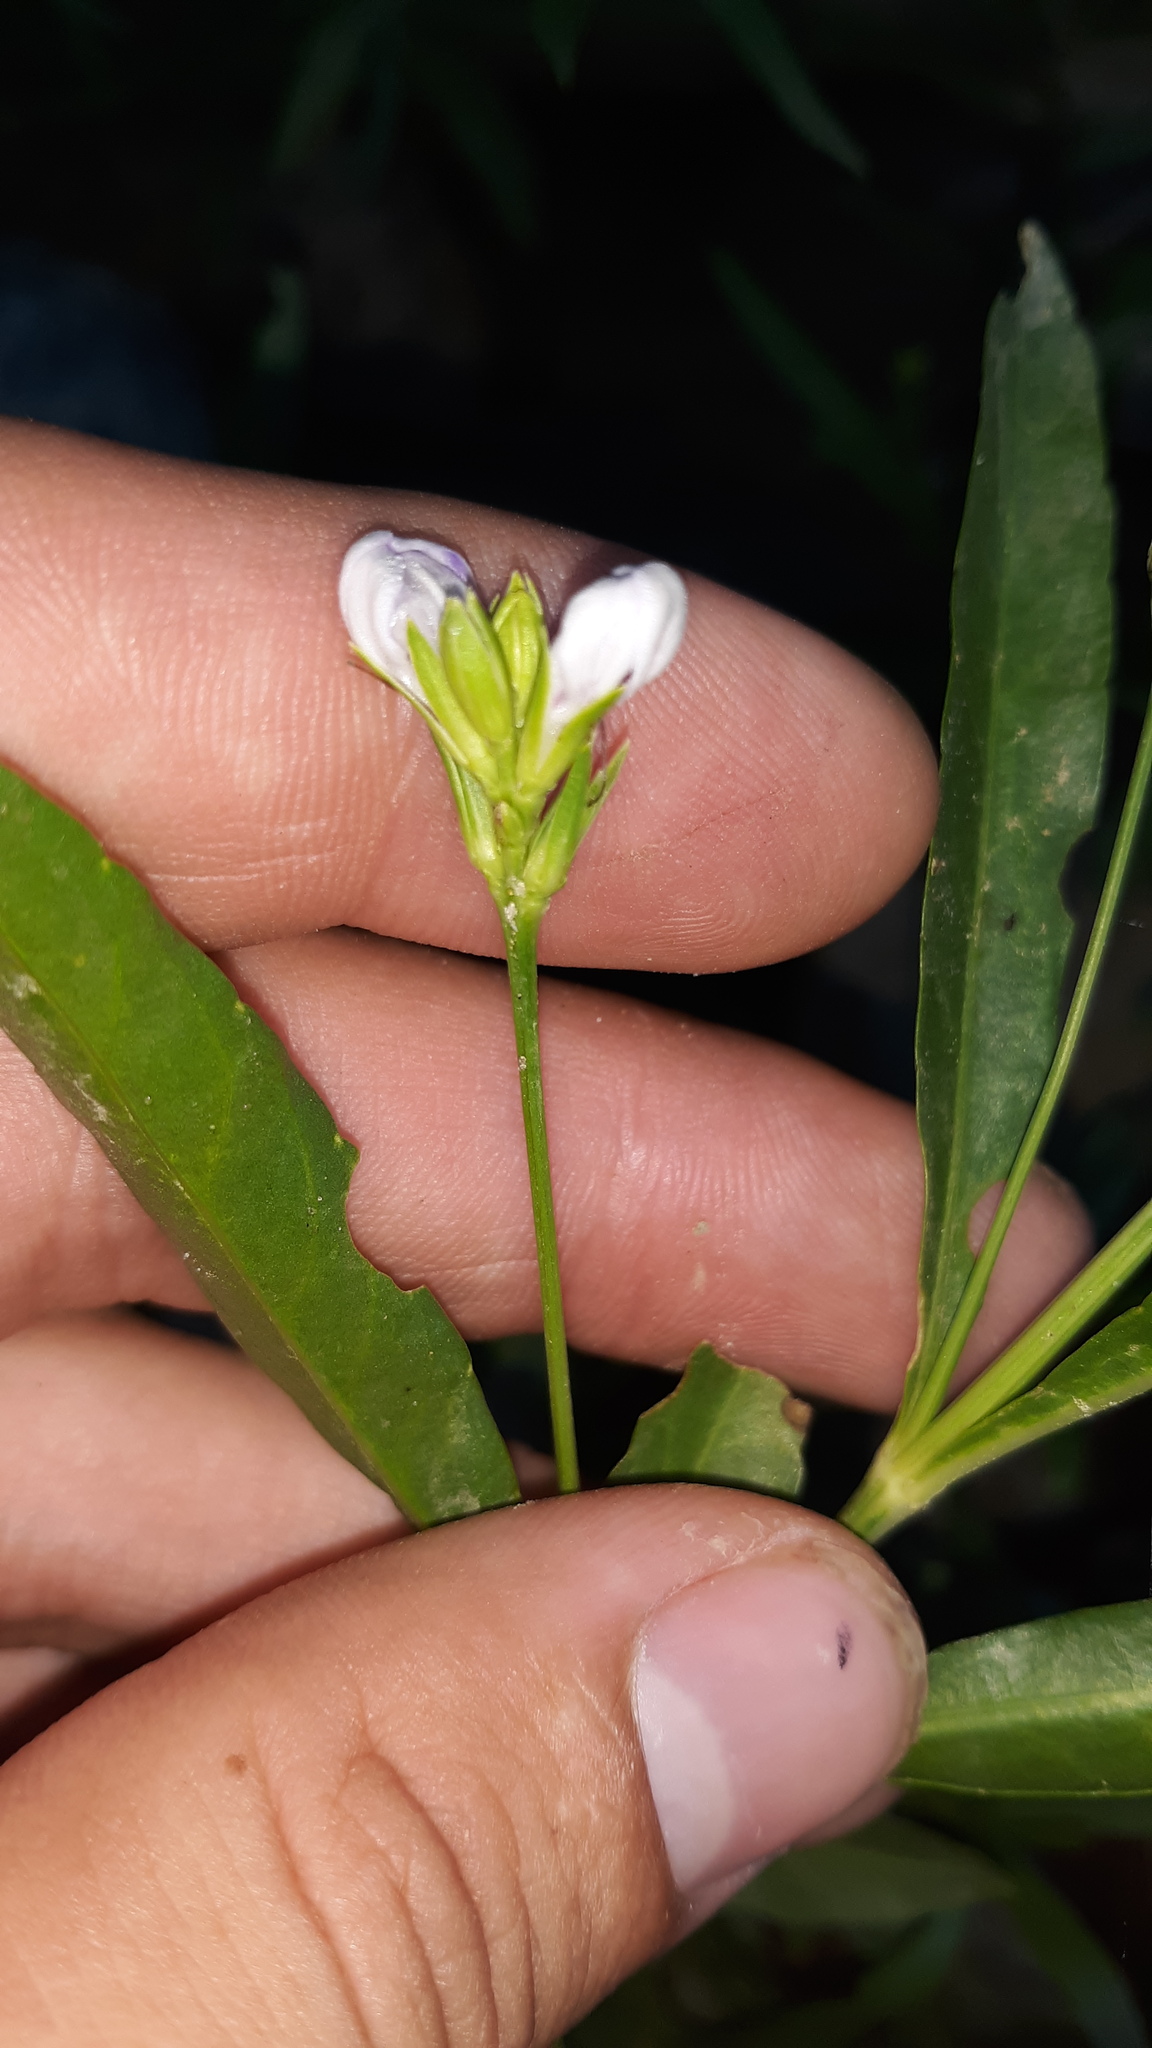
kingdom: Plantae
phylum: Tracheophyta
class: Magnoliopsida
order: Lamiales
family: Acanthaceae
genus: Dianthera
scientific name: Dianthera americana
